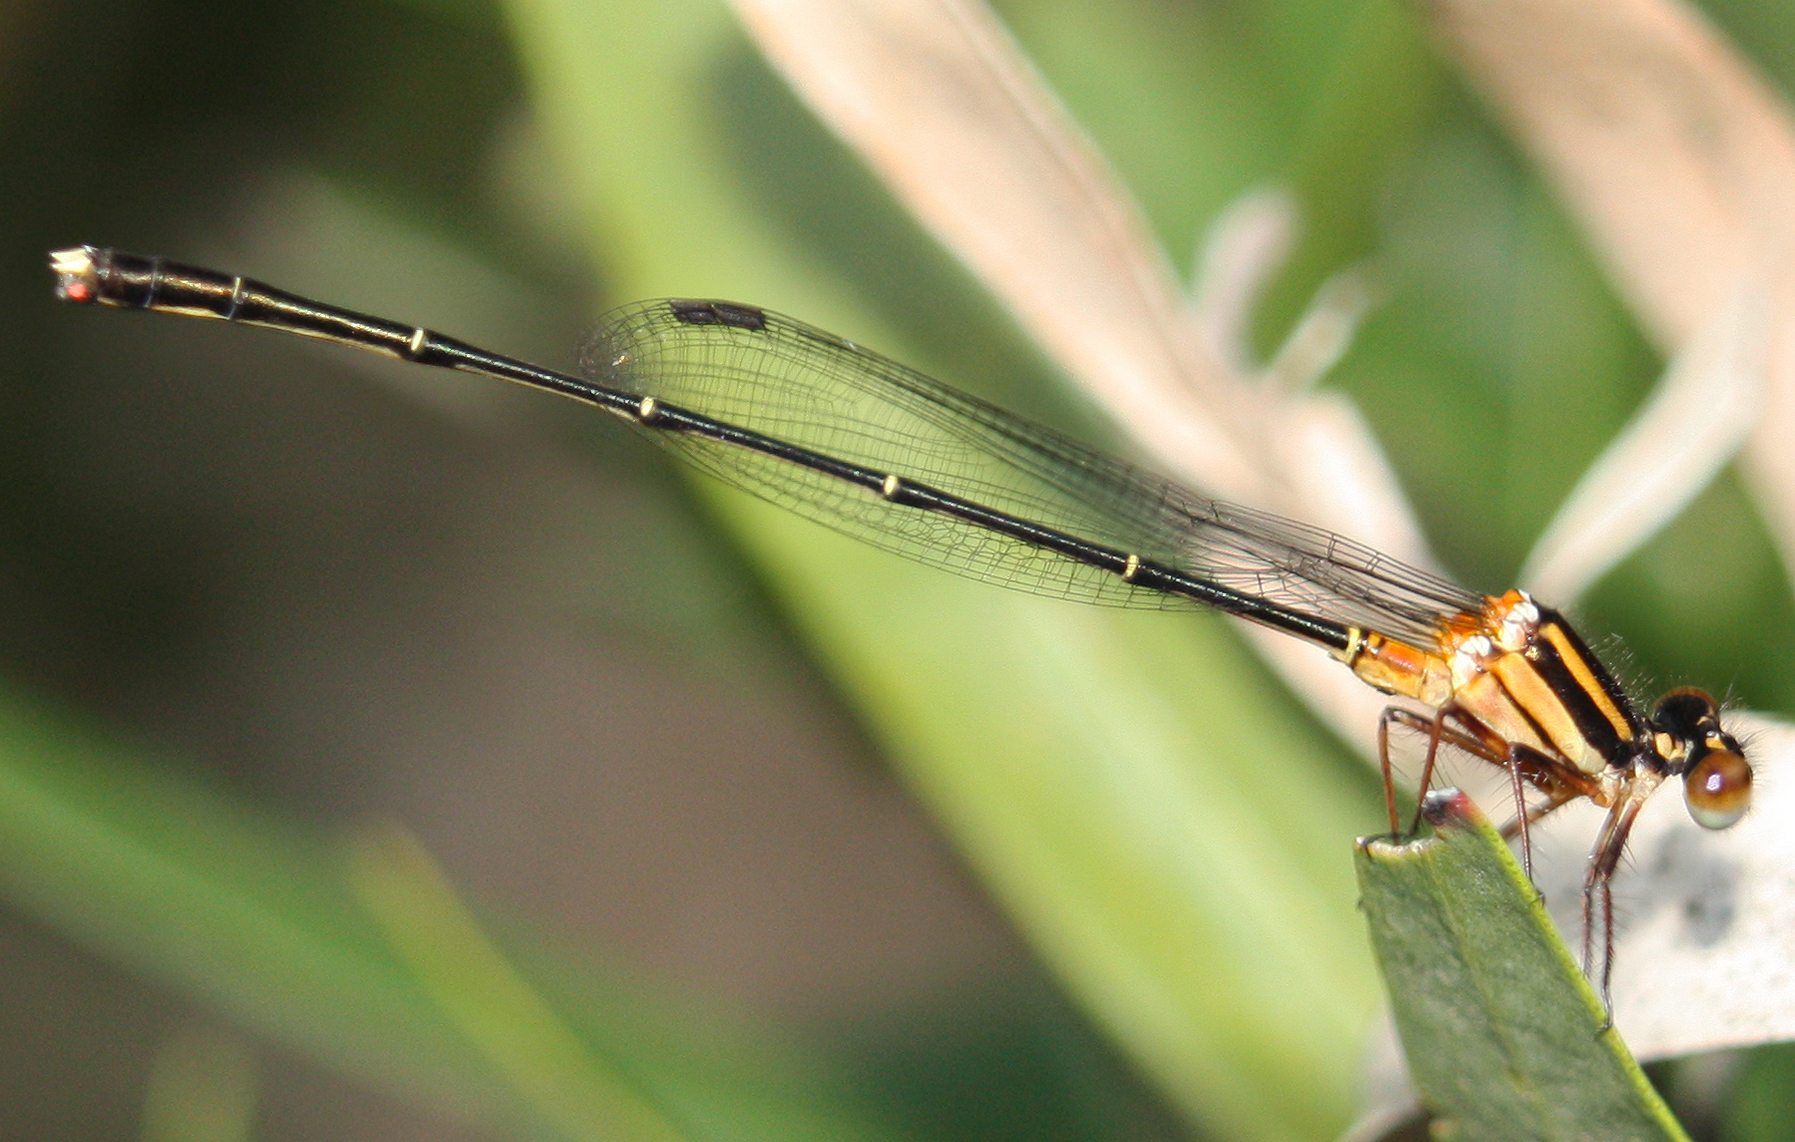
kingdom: Animalia
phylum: Arthropoda
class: Insecta
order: Odonata
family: Platycnemididae
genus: Nososticta
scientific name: Nososticta solida
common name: Orange threadtail
